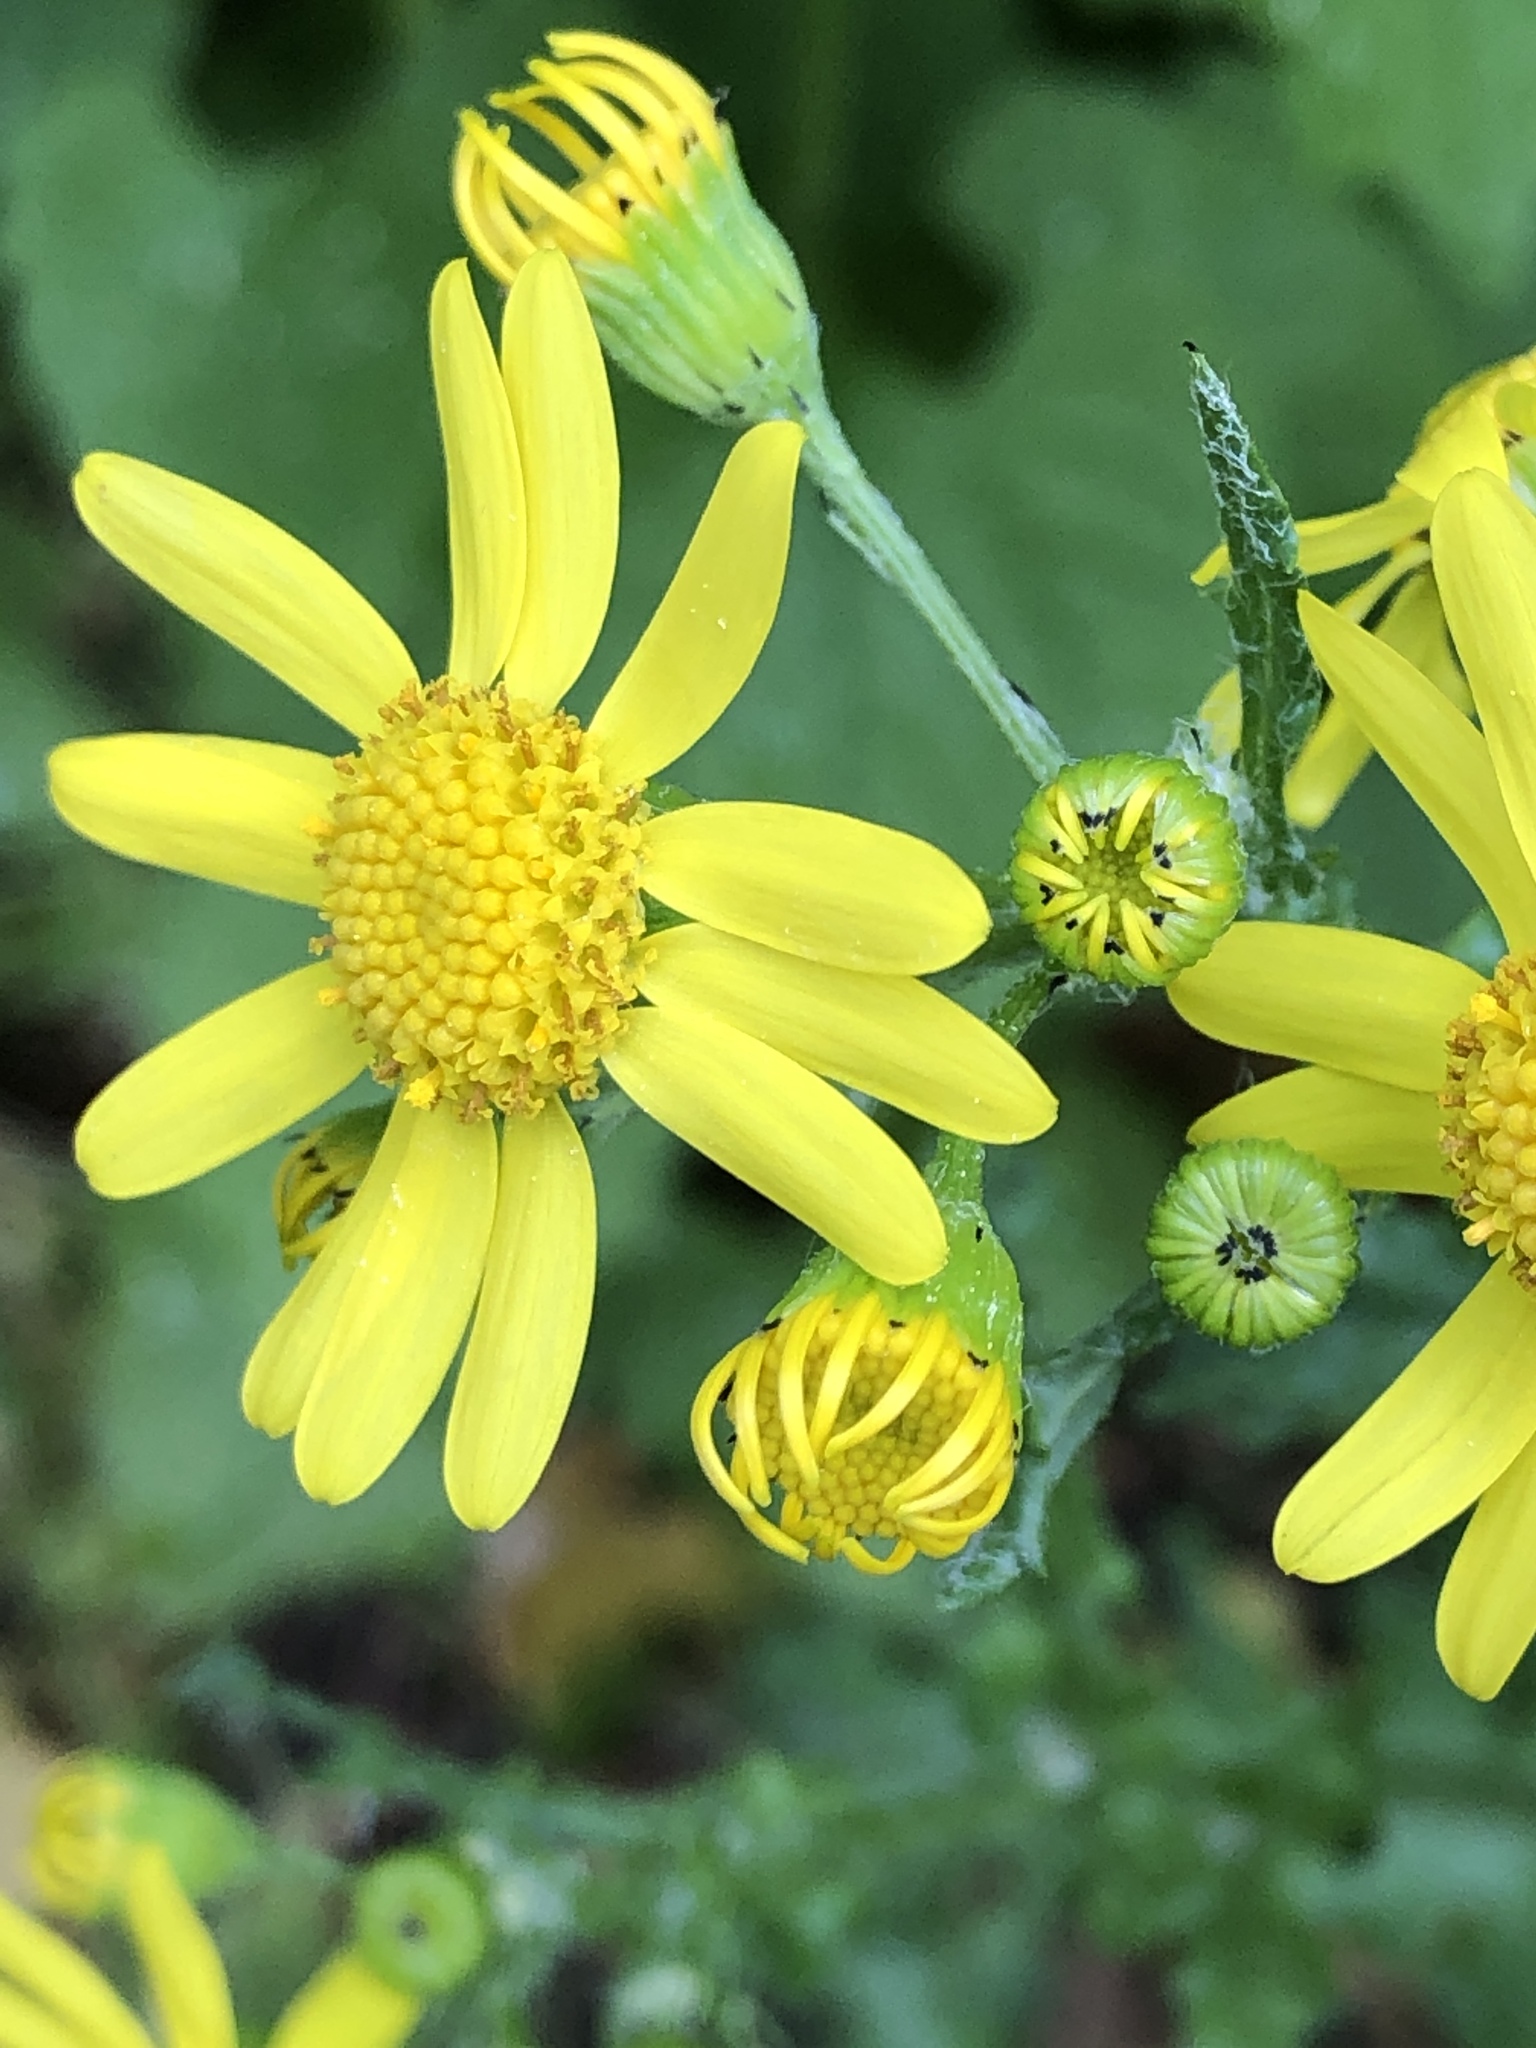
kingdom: Plantae
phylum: Tracheophyta
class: Magnoliopsida
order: Asterales
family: Asteraceae
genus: Senecio
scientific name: Senecio vernalis
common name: Eastern groundsel
